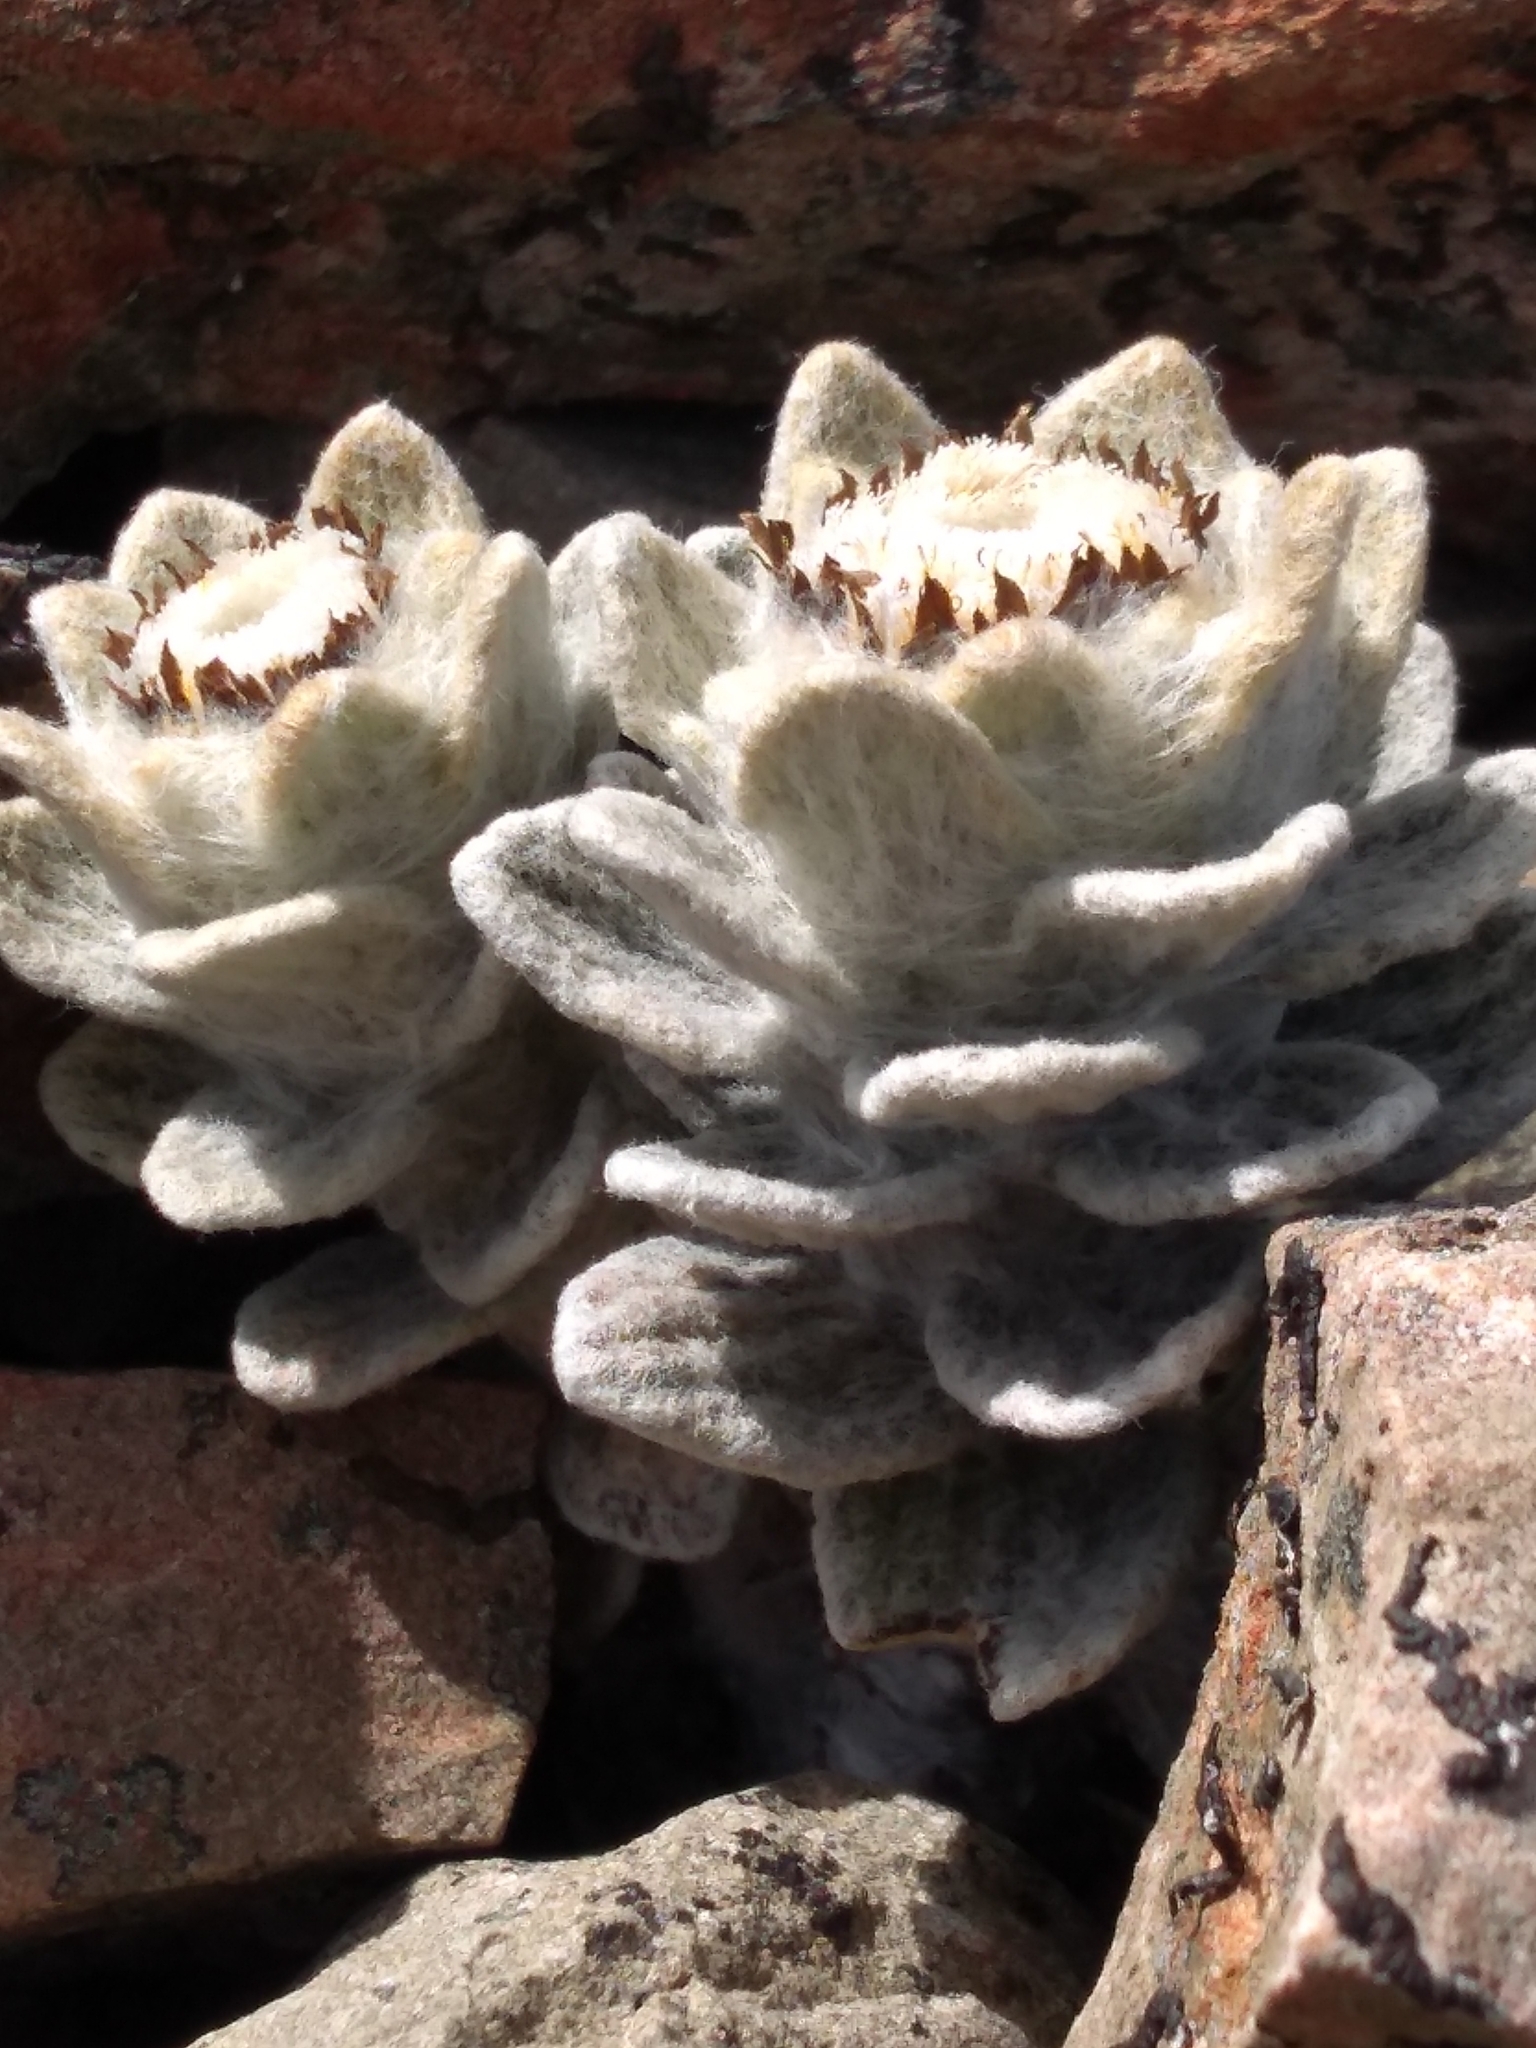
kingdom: Plantae
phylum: Tracheophyta
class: Magnoliopsida
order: Asterales
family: Asteraceae
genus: Haastia
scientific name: Haastia sinclairii
